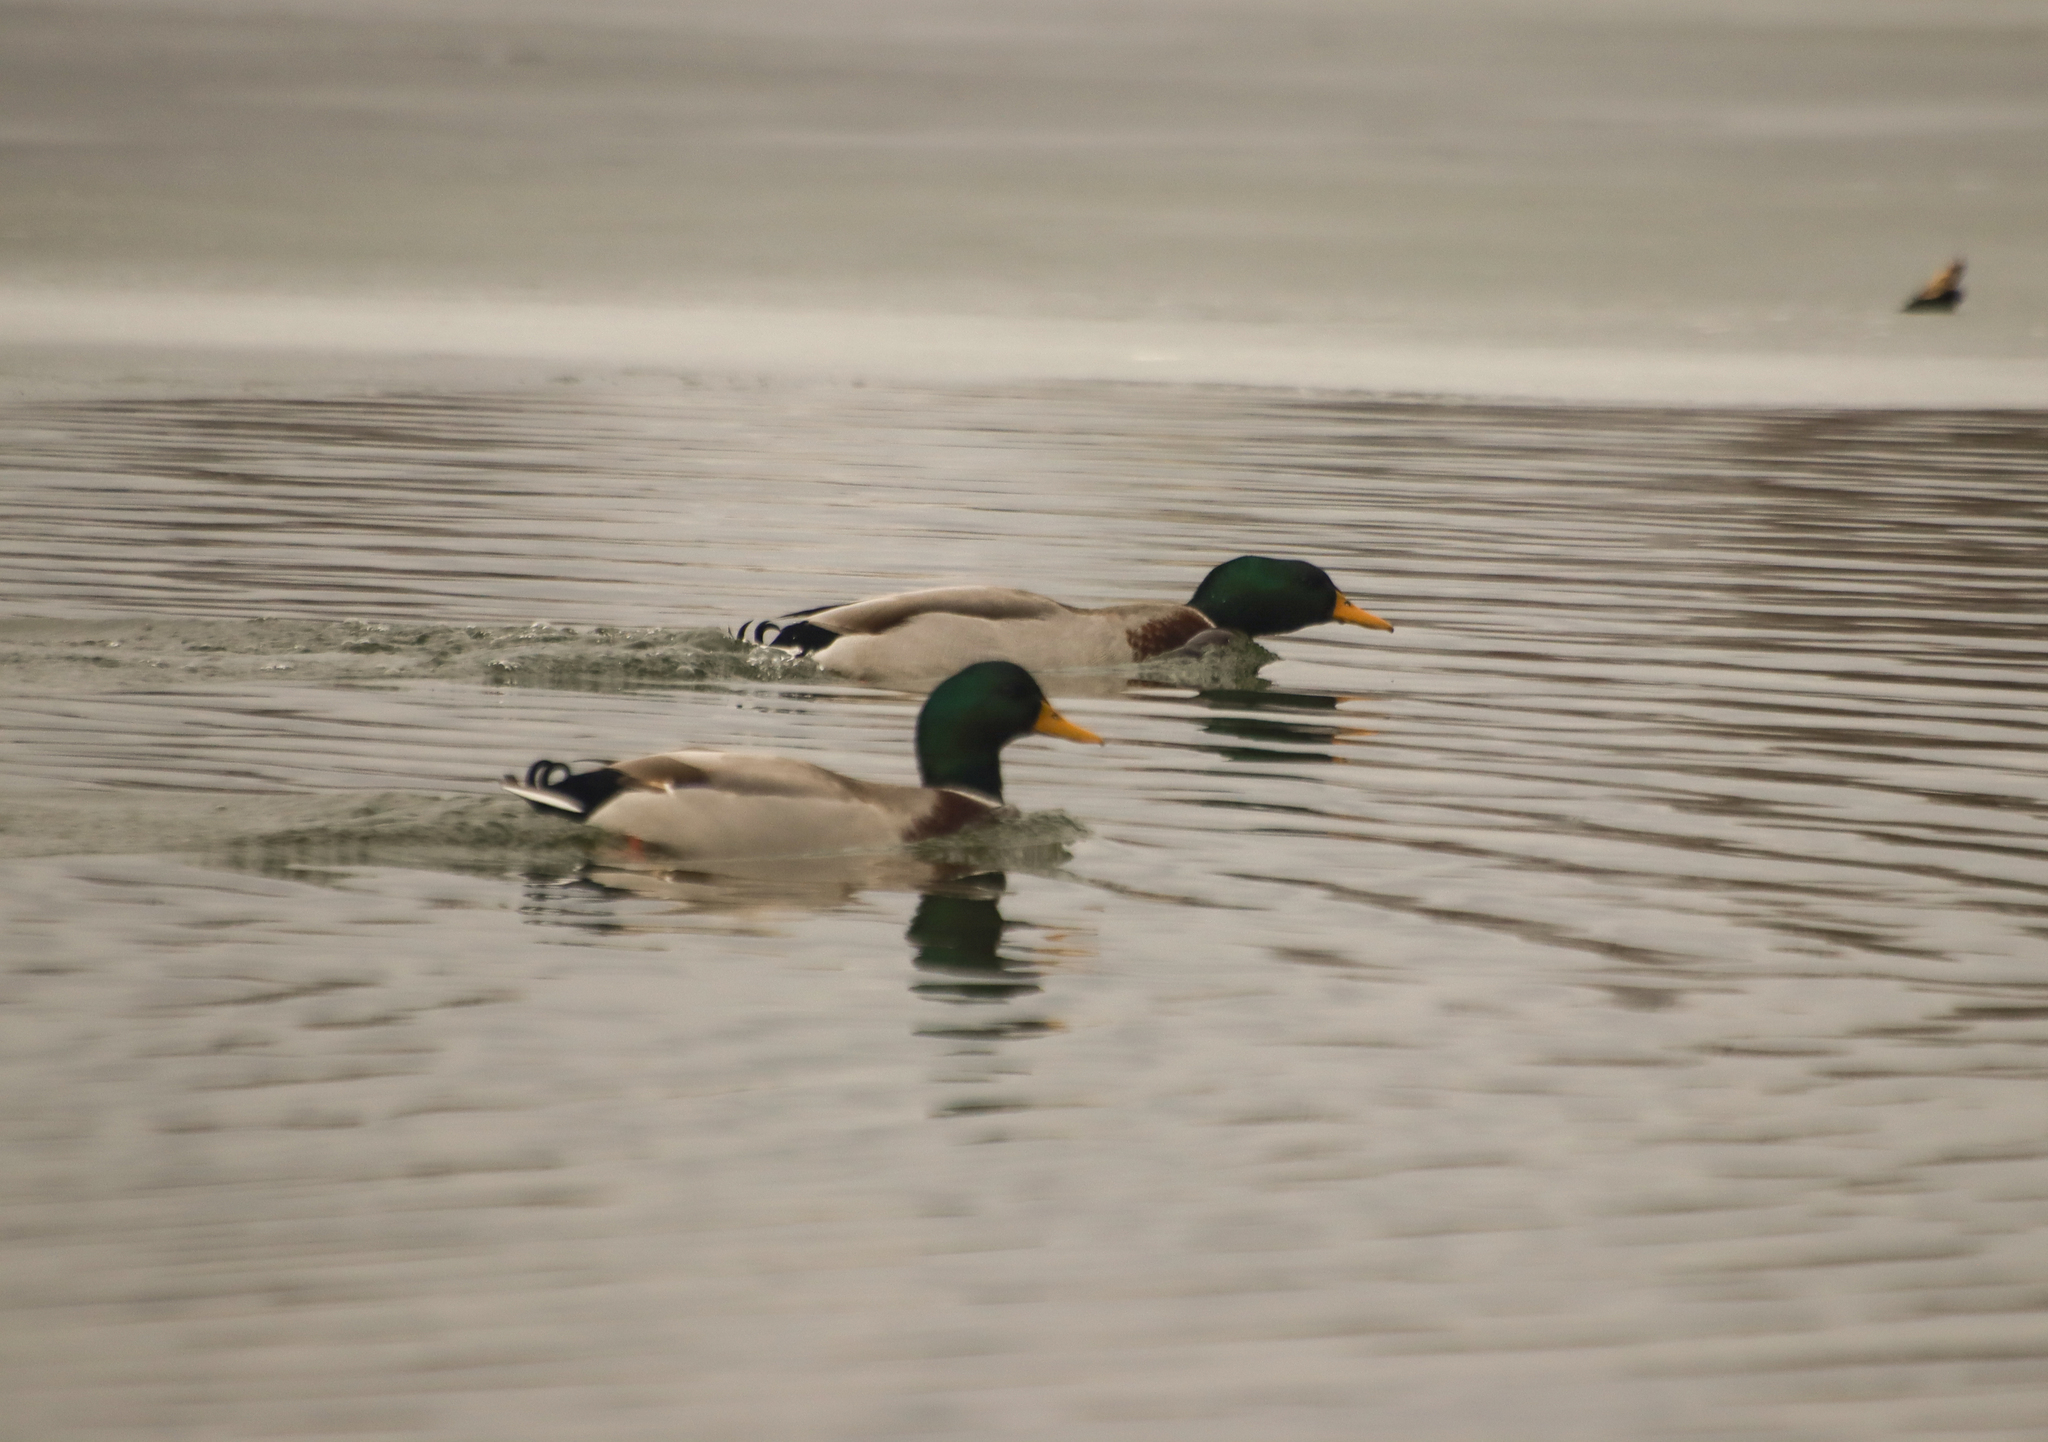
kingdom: Animalia
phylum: Chordata
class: Aves
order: Anseriformes
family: Anatidae
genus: Anas
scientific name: Anas platyrhynchos
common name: Mallard
